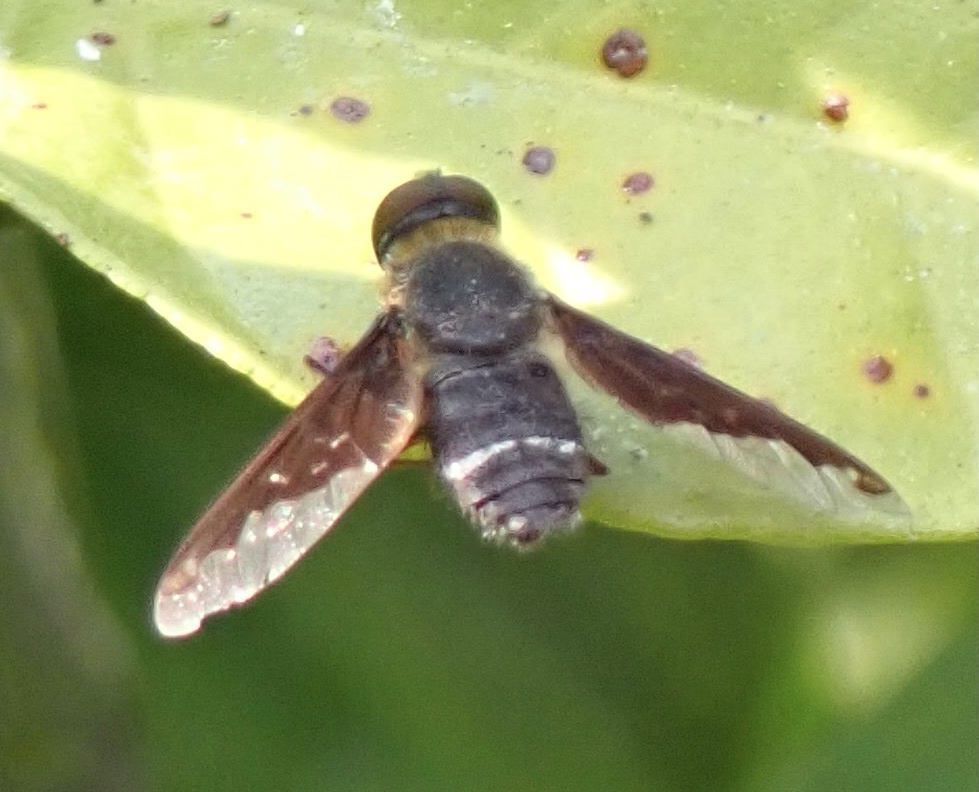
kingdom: Animalia
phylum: Arthropoda
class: Insecta
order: Diptera
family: Bombyliidae
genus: Hemipenthes
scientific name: Hemipenthes velutina
